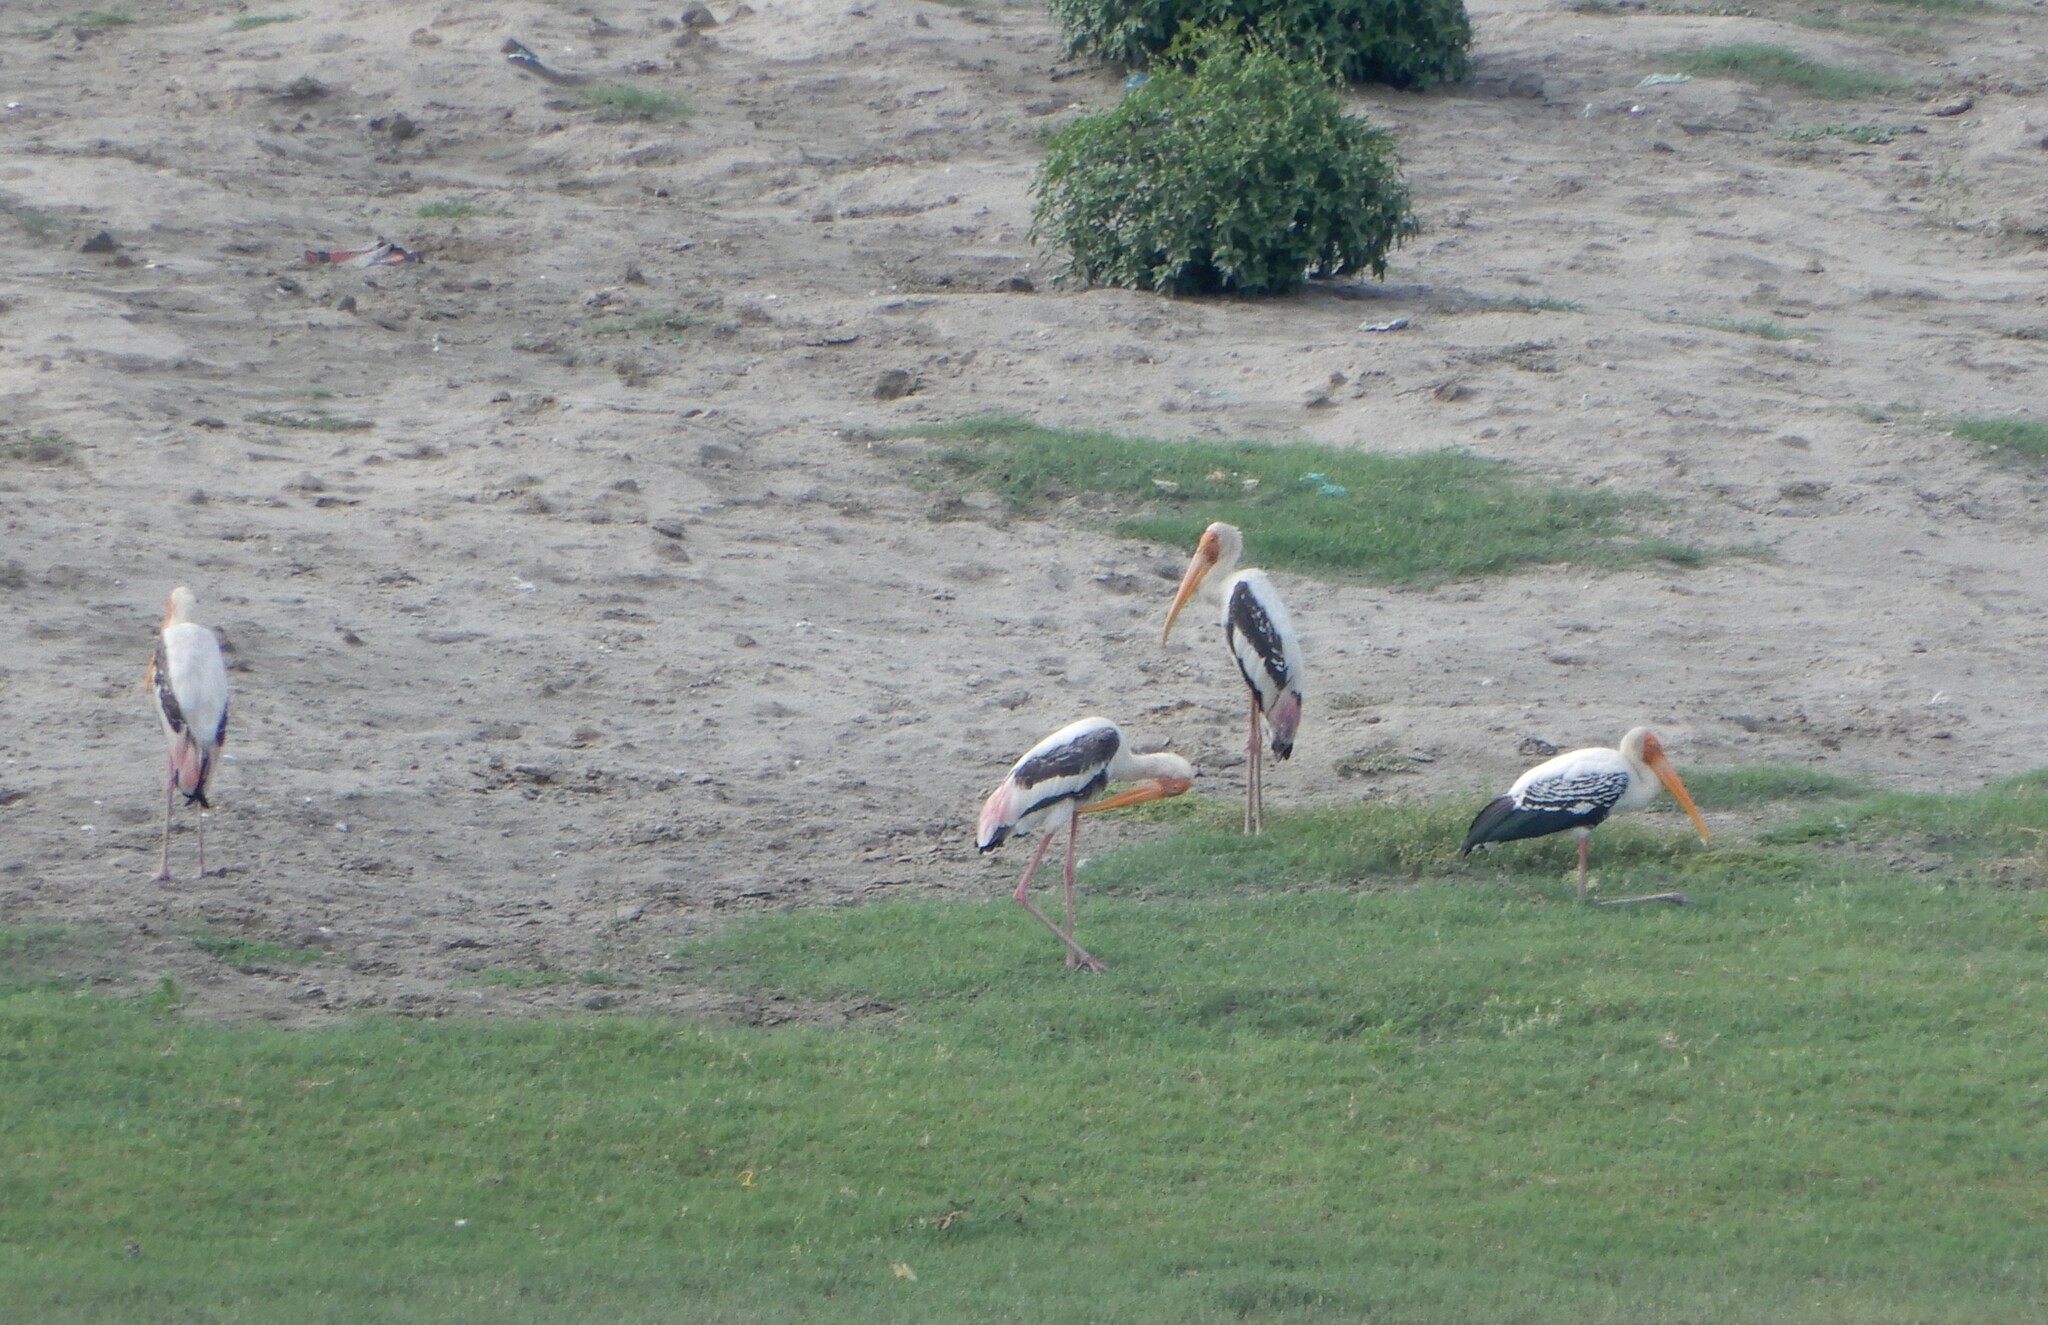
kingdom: Animalia
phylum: Chordata
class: Aves
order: Ciconiiformes
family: Ciconiidae
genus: Mycteria
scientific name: Mycteria leucocephala
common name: Painted stork
